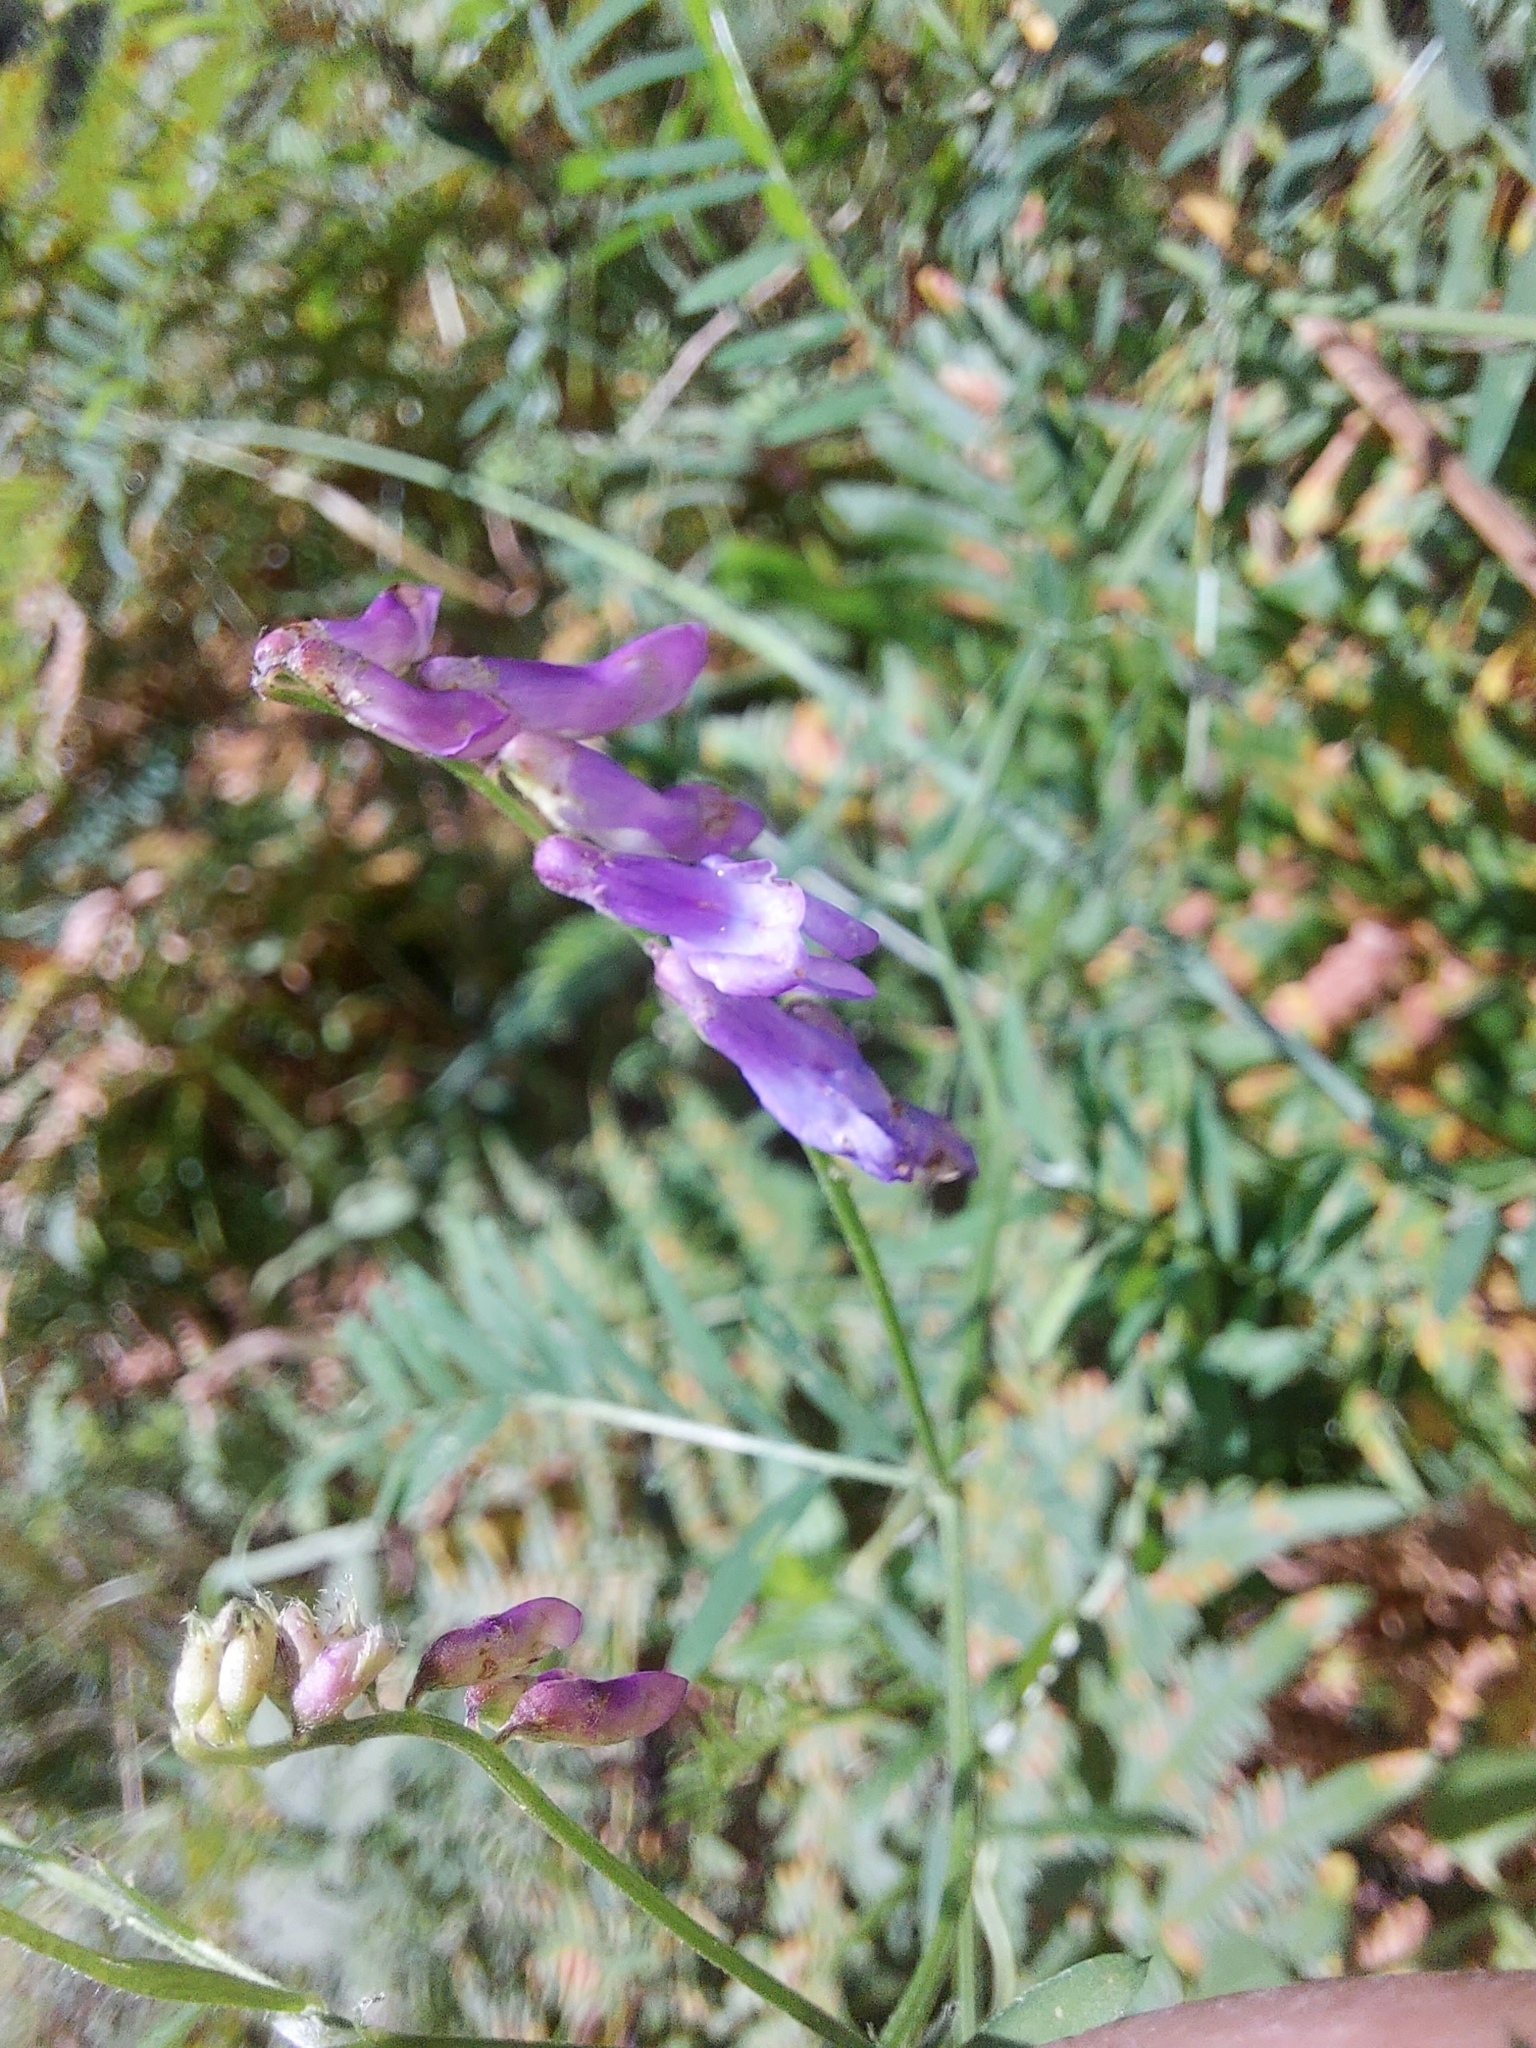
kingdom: Plantae
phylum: Tracheophyta
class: Magnoliopsida
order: Fabales
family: Fabaceae
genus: Vicia
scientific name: Vicia cracca
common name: Bird vetch
